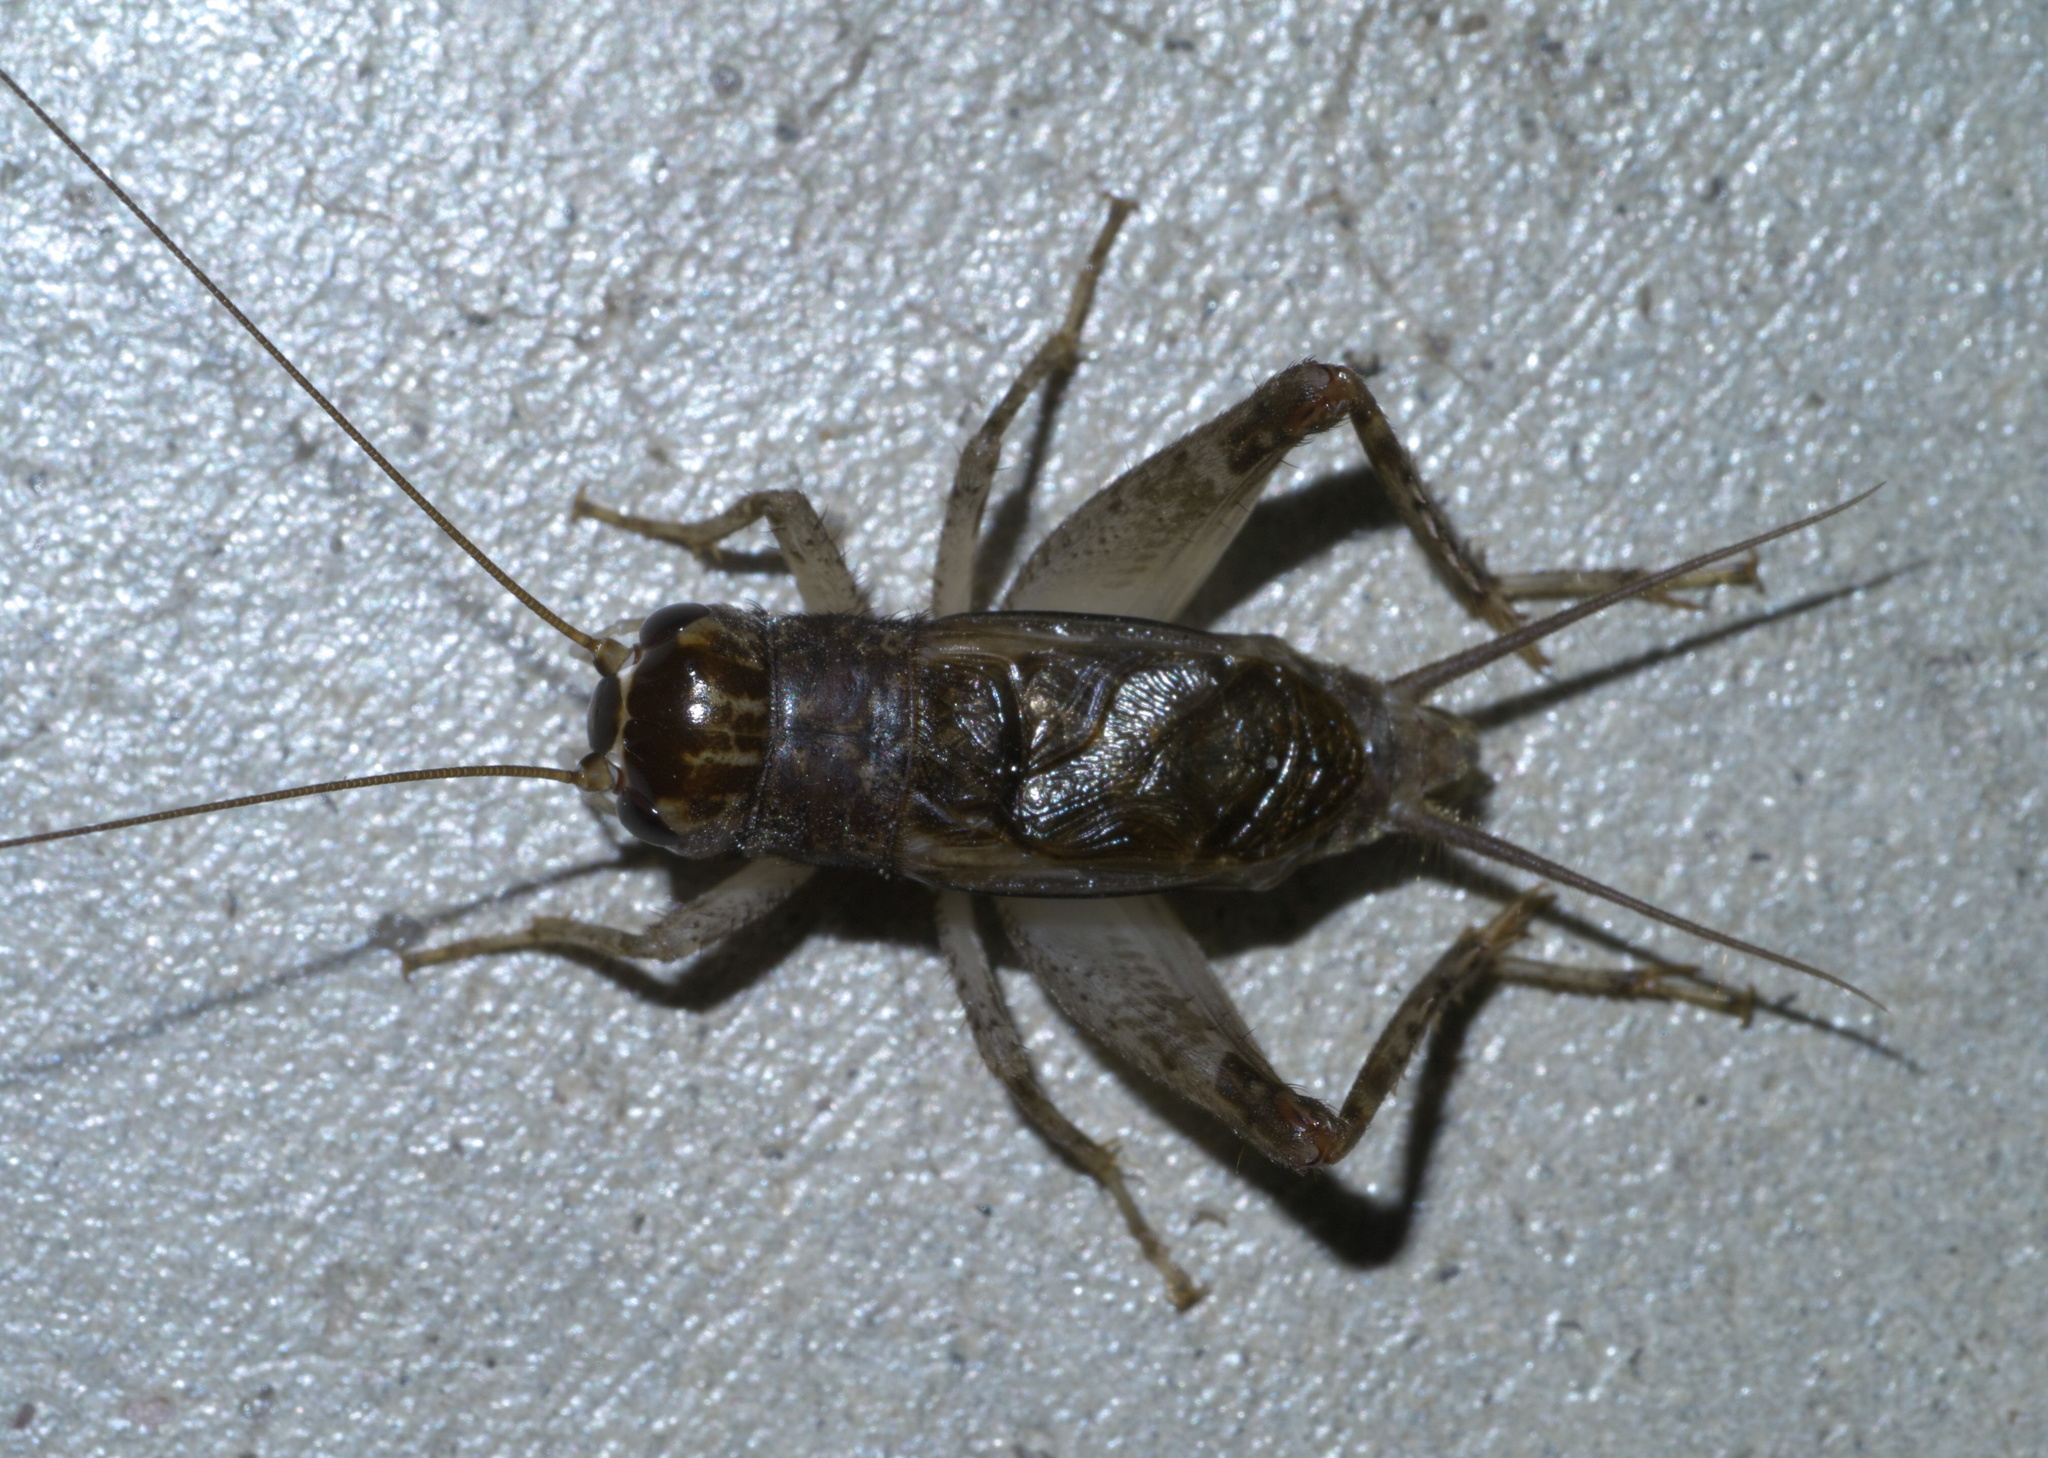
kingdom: Animalia
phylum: Arthropoda
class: Insecta
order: Orthoptera
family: Gryllidae
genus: Velarifictorus
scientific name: Velarifictorus micado
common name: Japanese burrowing cricket
